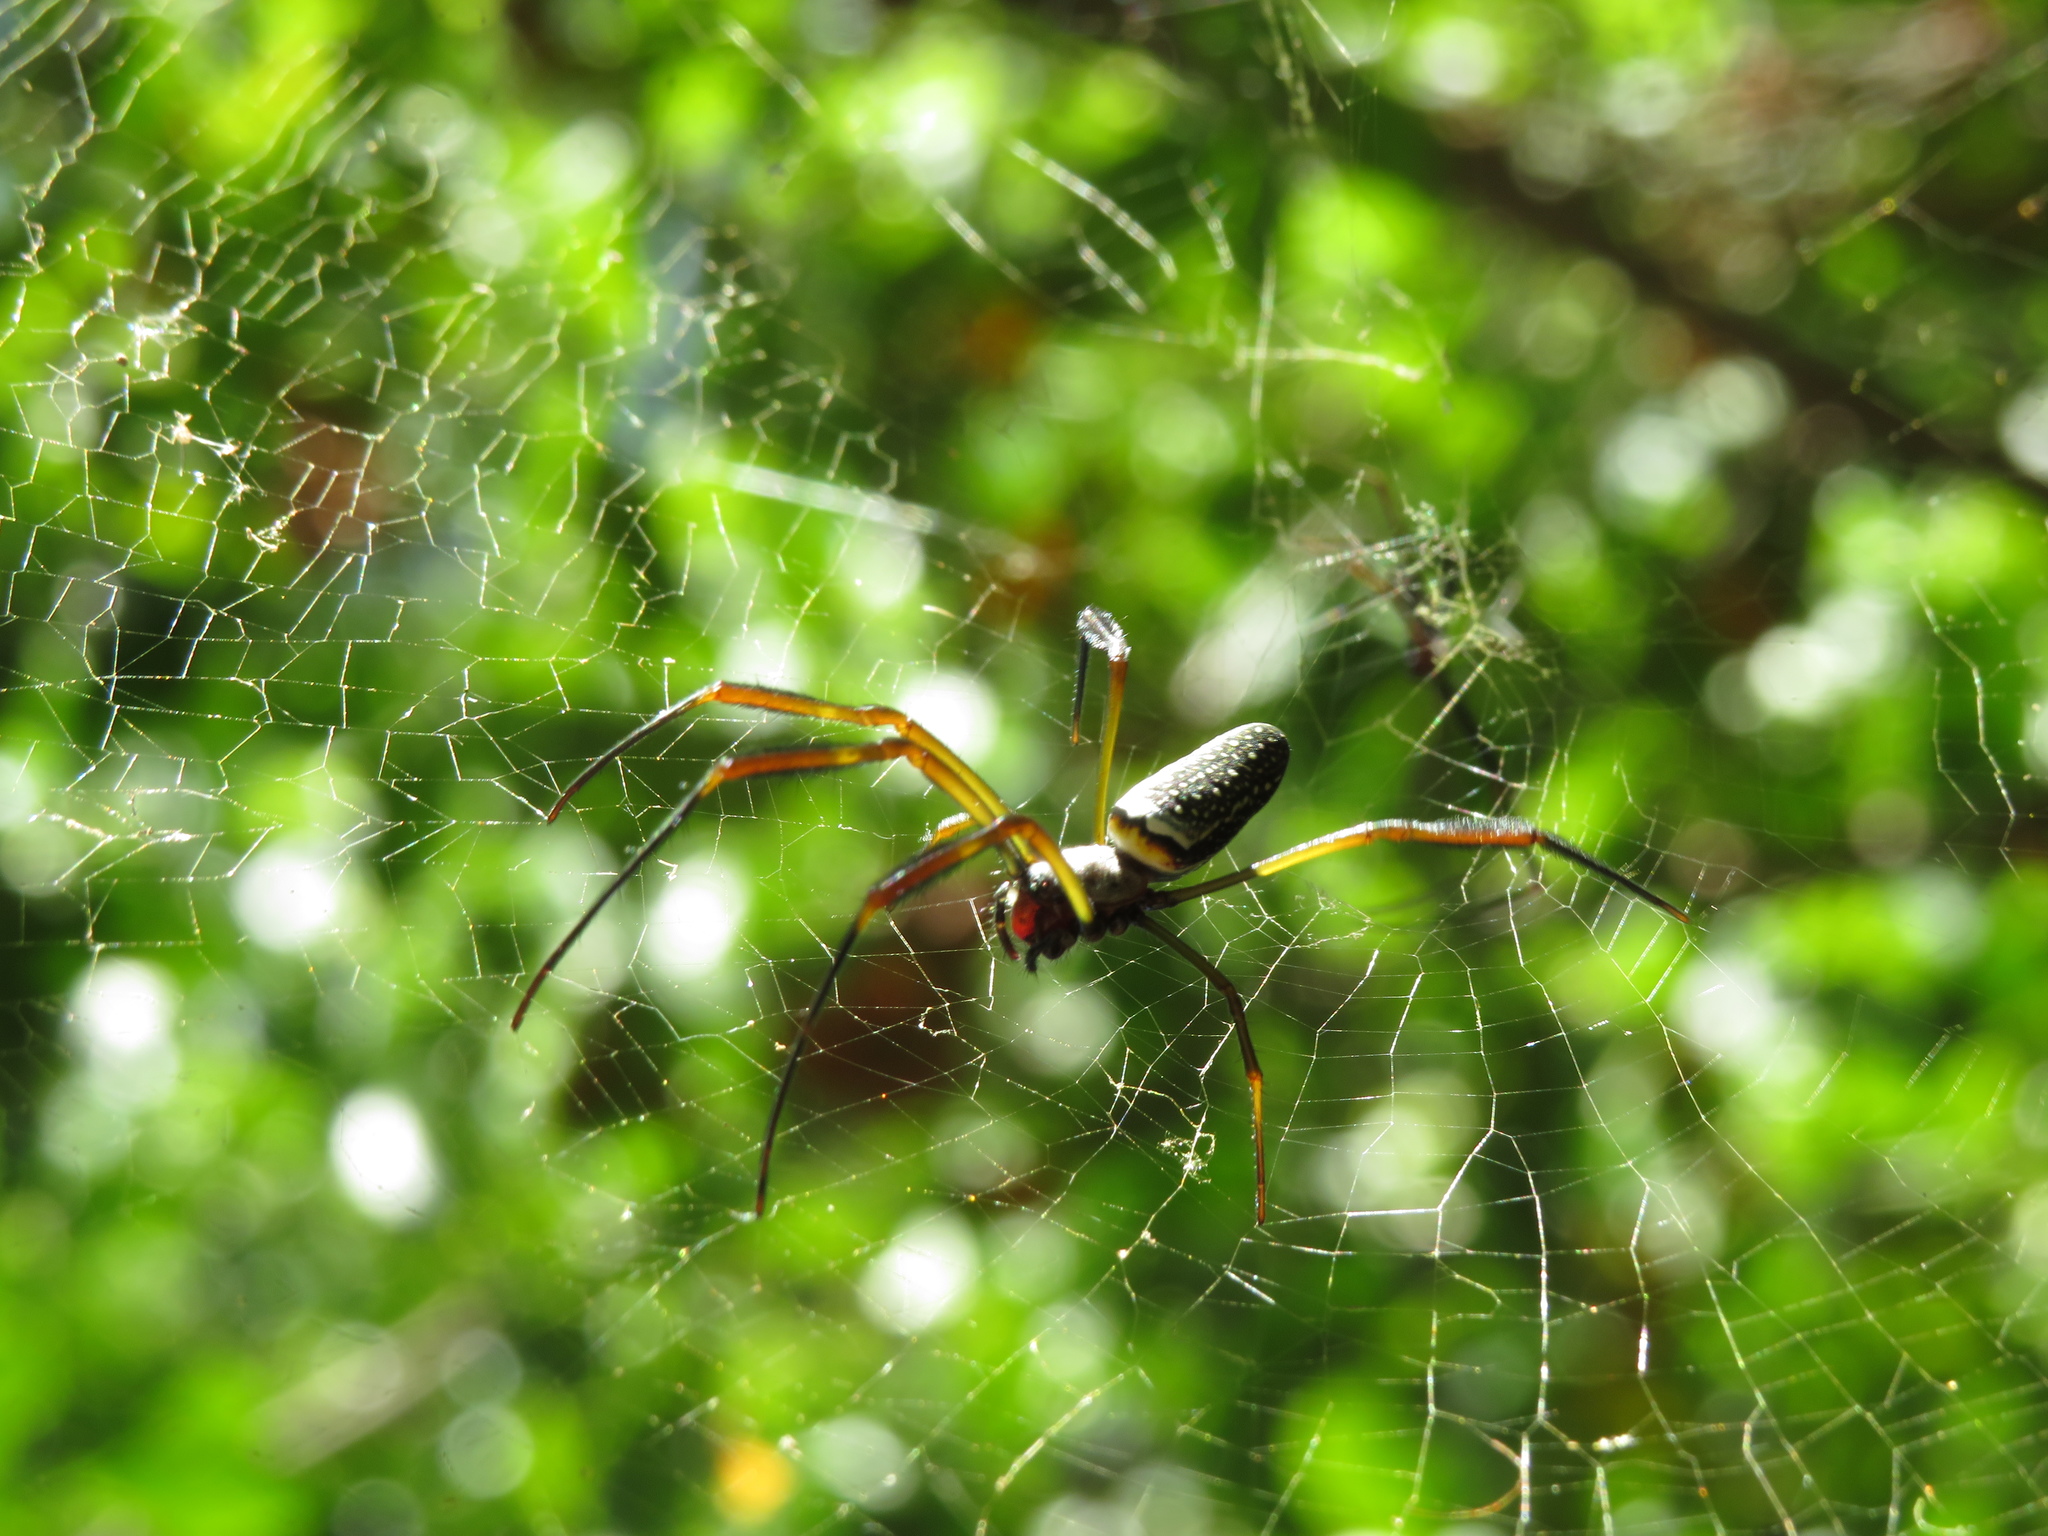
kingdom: Animalia
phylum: Arthropoda
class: Arachnida
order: Araneae
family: Araneidae
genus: Trichonephila
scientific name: Trichonephila clavipes
